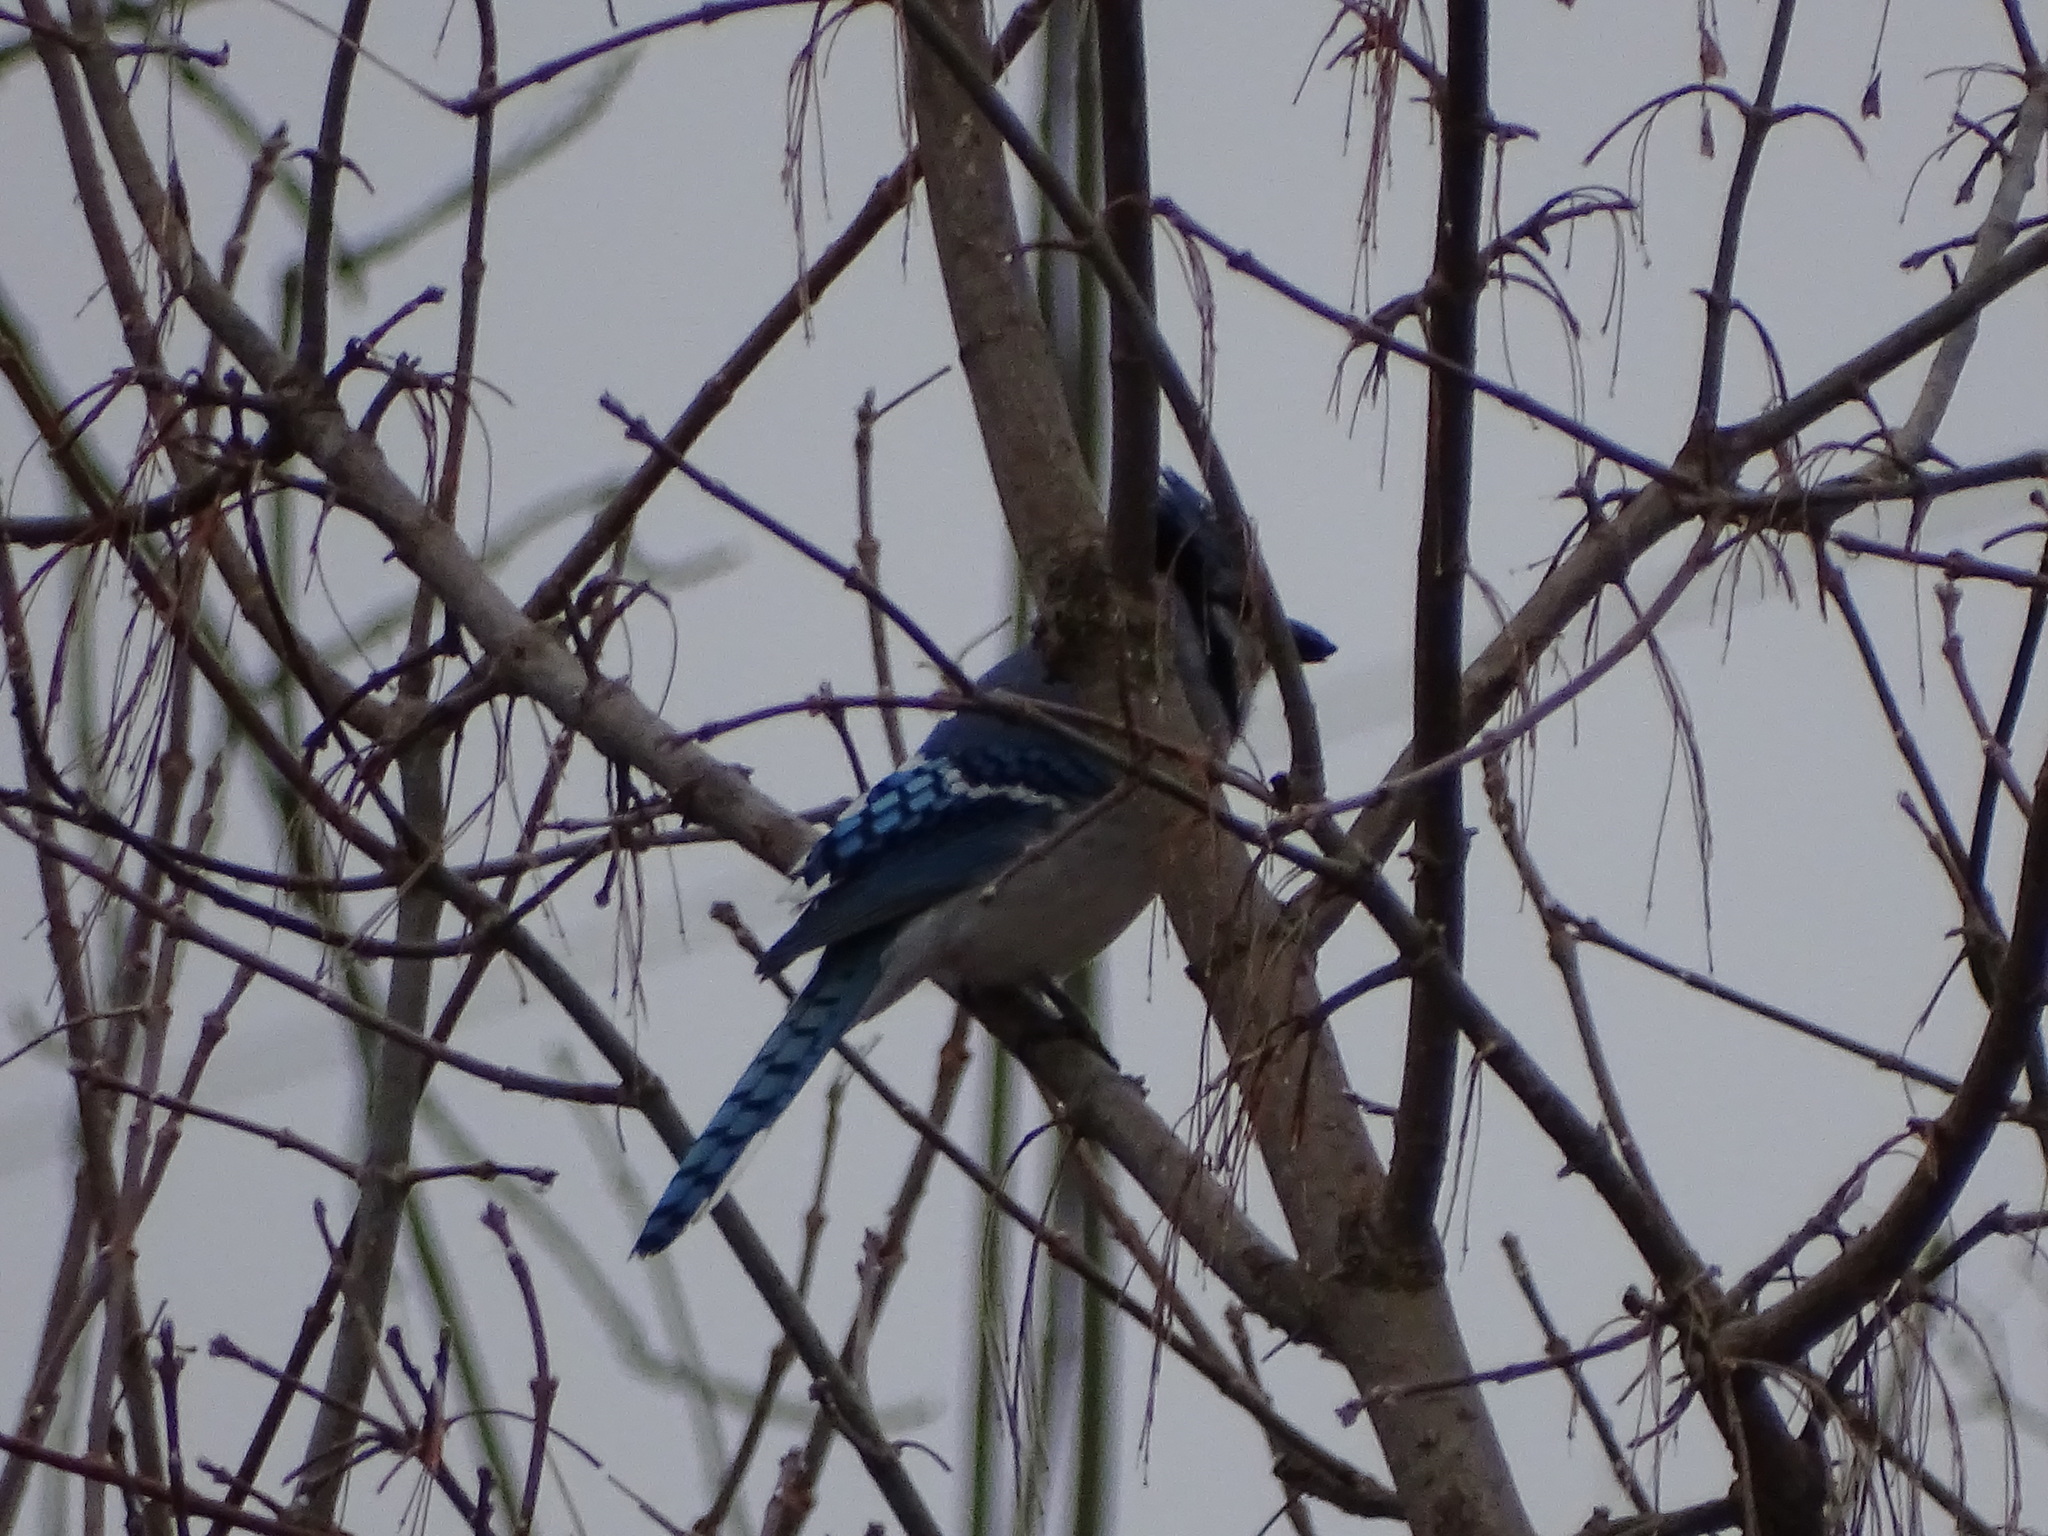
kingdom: Animalia
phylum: Chordata
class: Aves
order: Passeriformes
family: Corvidae
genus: Cyanocitta
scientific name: Cyanocitta cristata
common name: Blue jay
